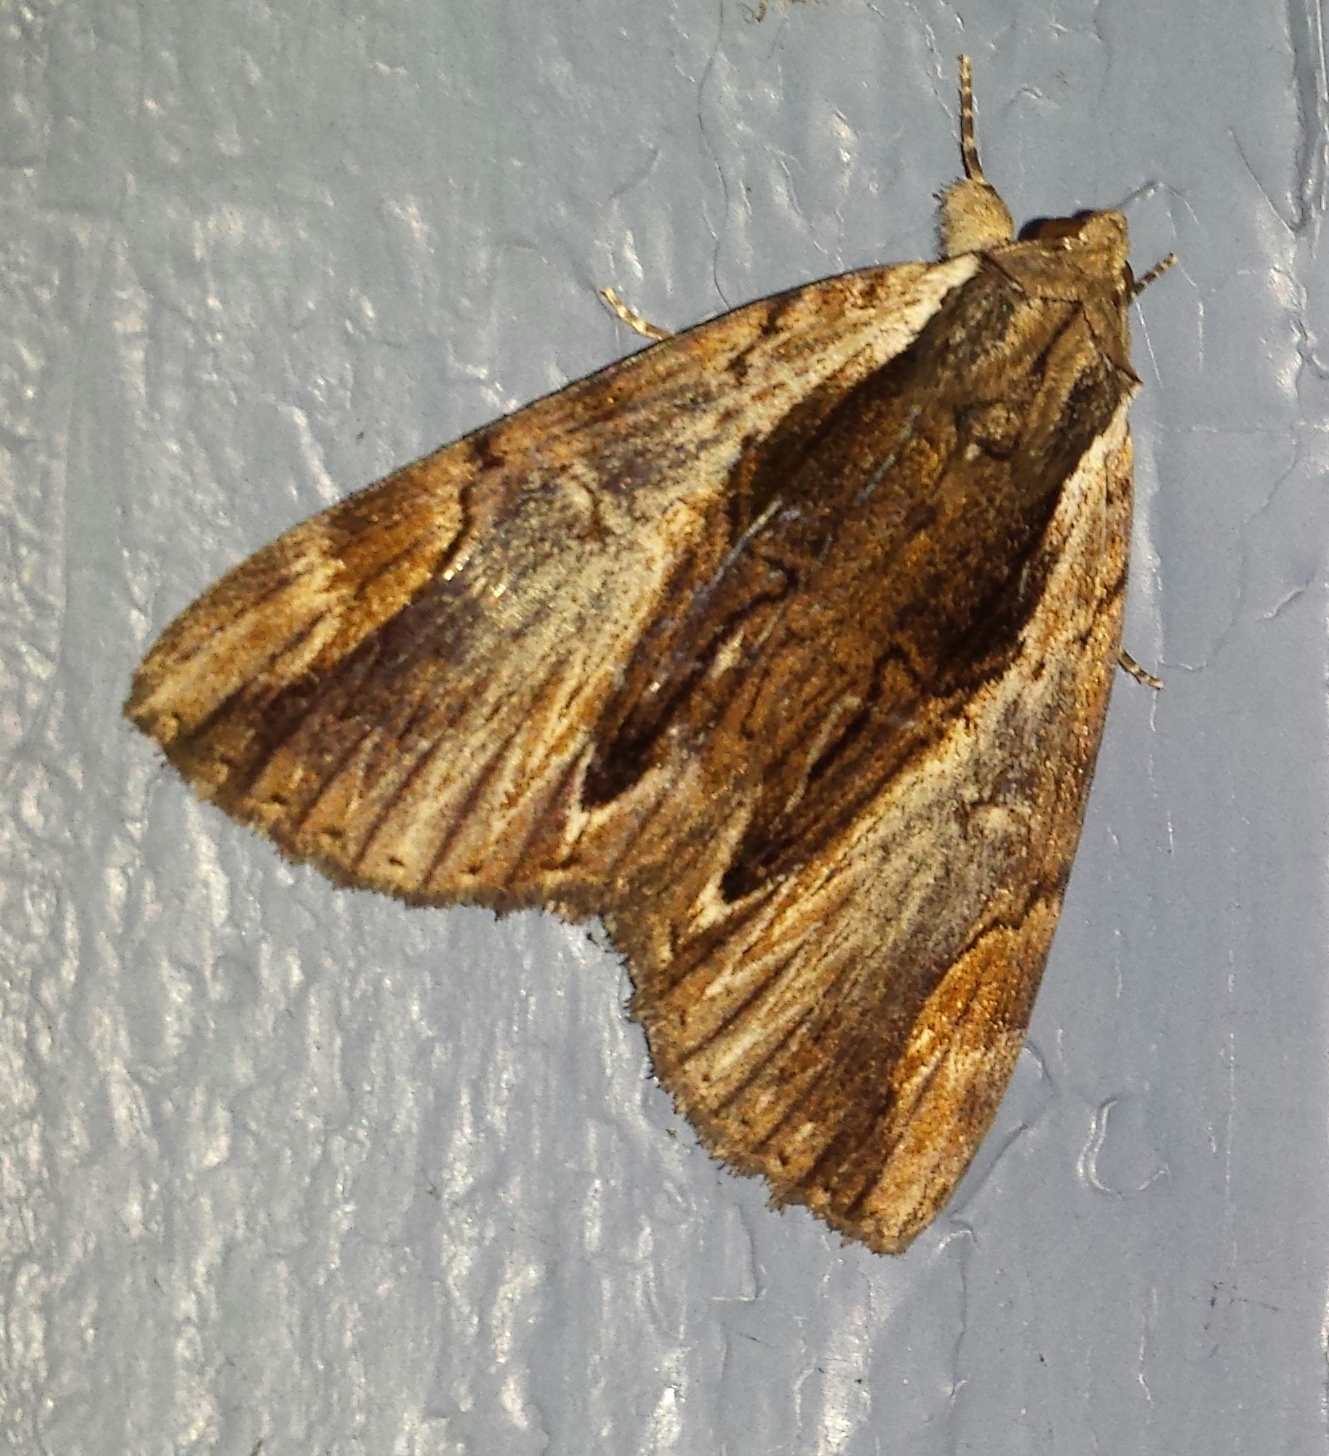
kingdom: Animalia
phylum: Arthropoda
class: Insecta
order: Lepidoptera
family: Erebidae
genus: Catocala
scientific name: Catocala ultronia
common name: Ultronia underwing
